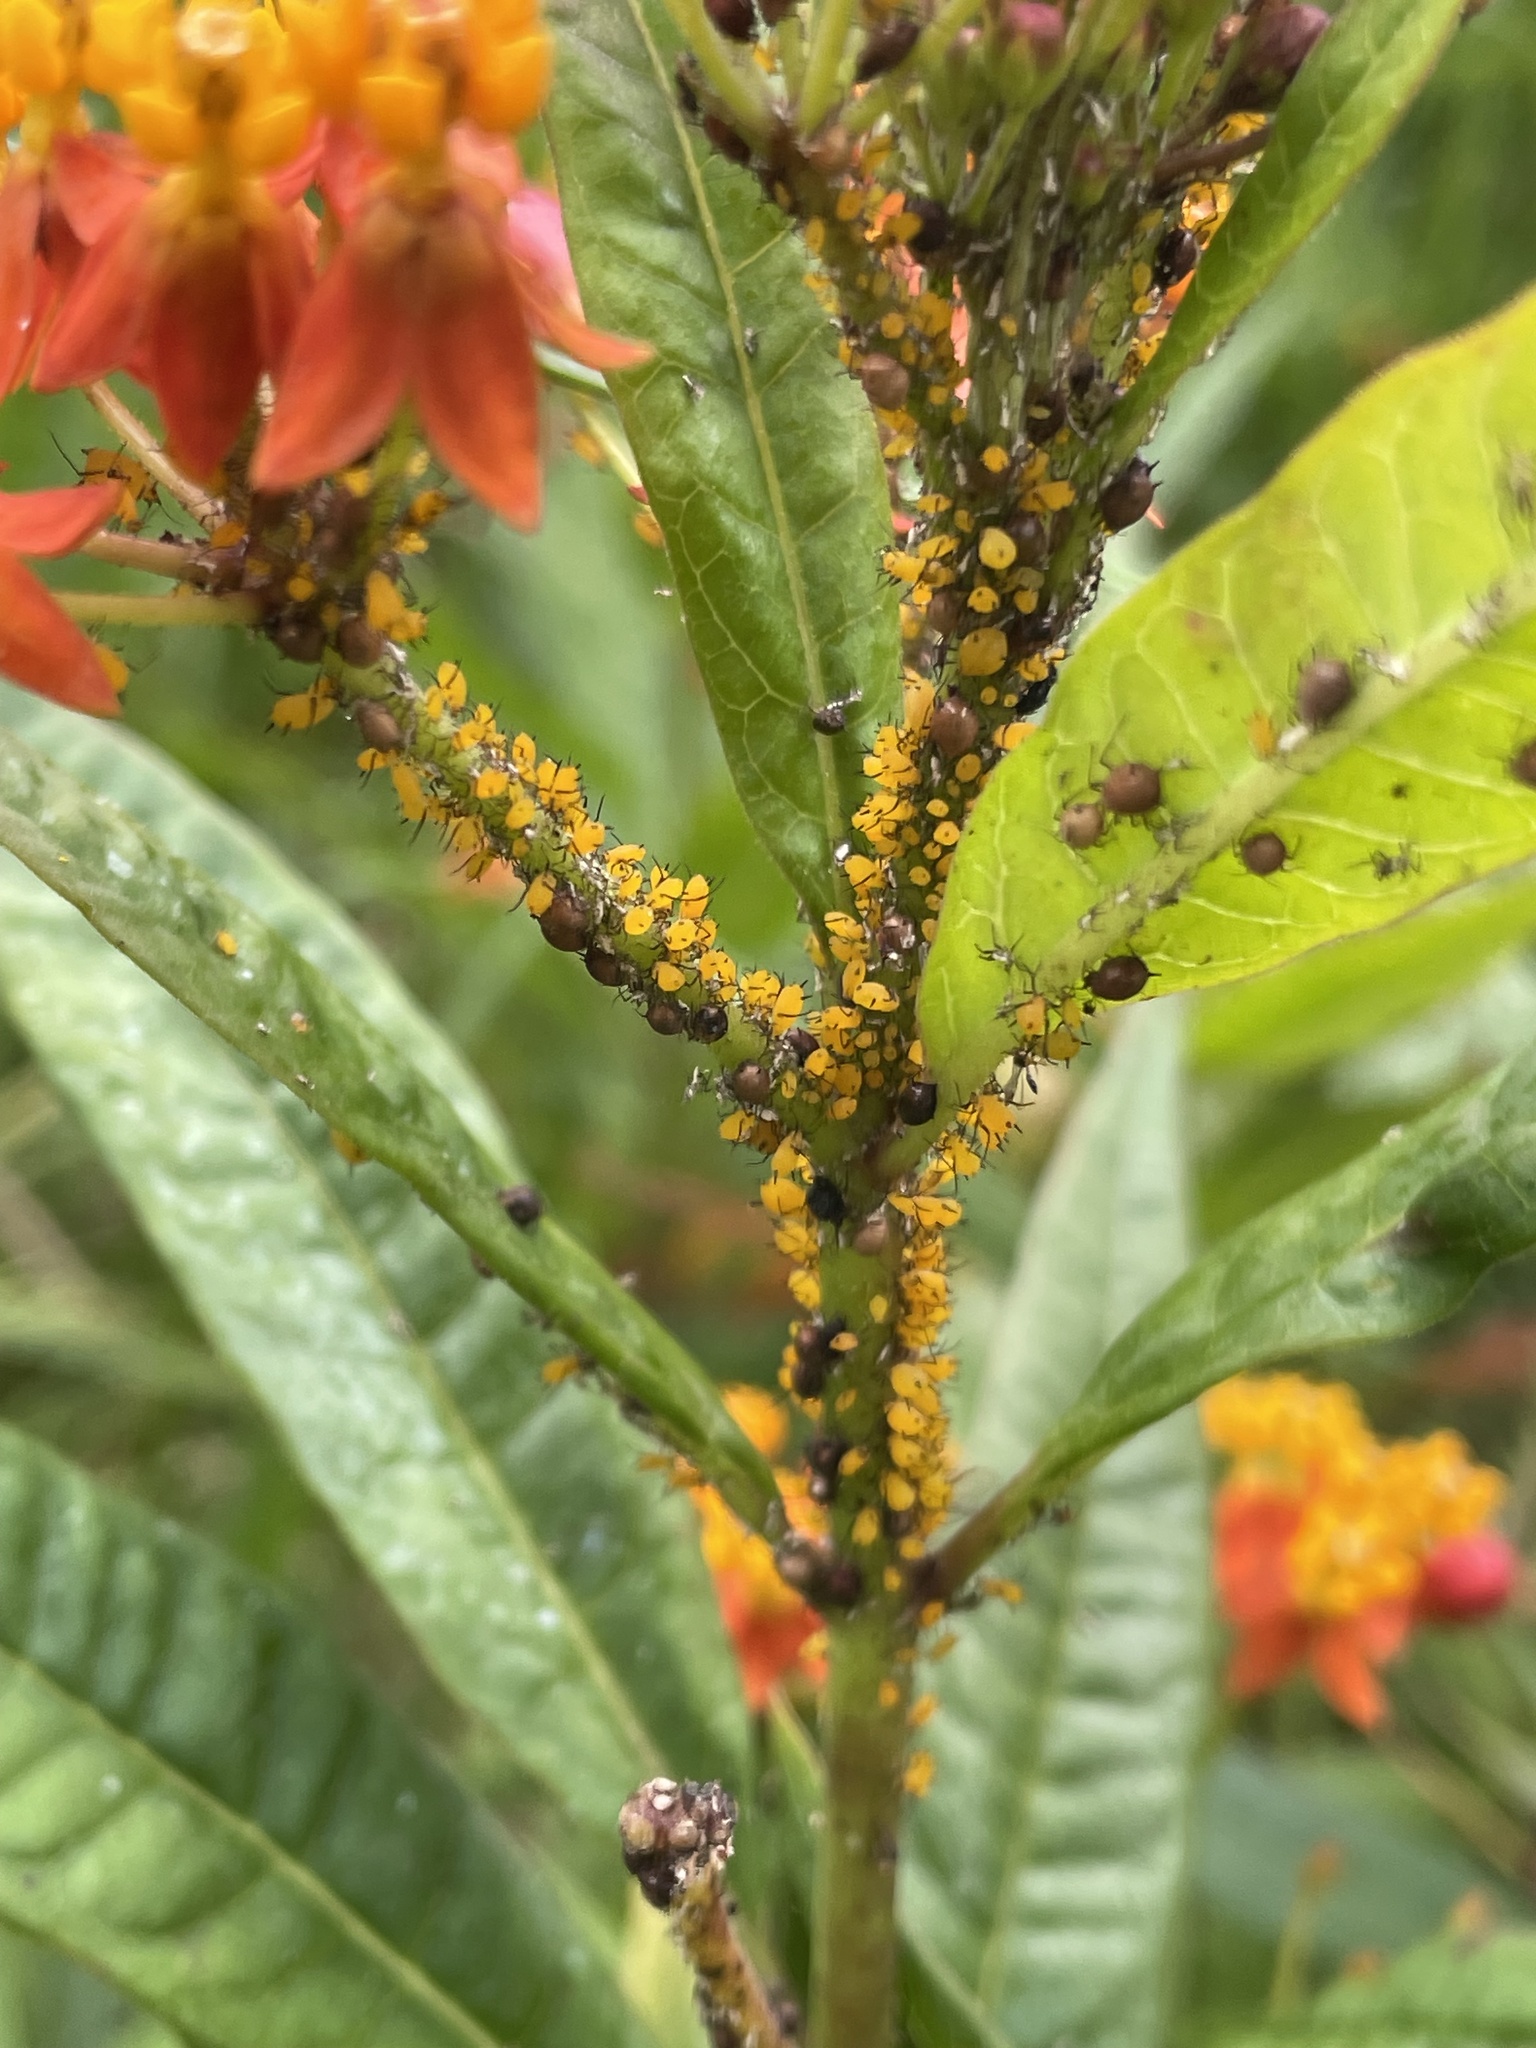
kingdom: Animalia
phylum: Arthropoda
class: Insecta
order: Hemiptera
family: Aphididae
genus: Aphis
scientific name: Aphis nerii
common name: Oleander aphid
